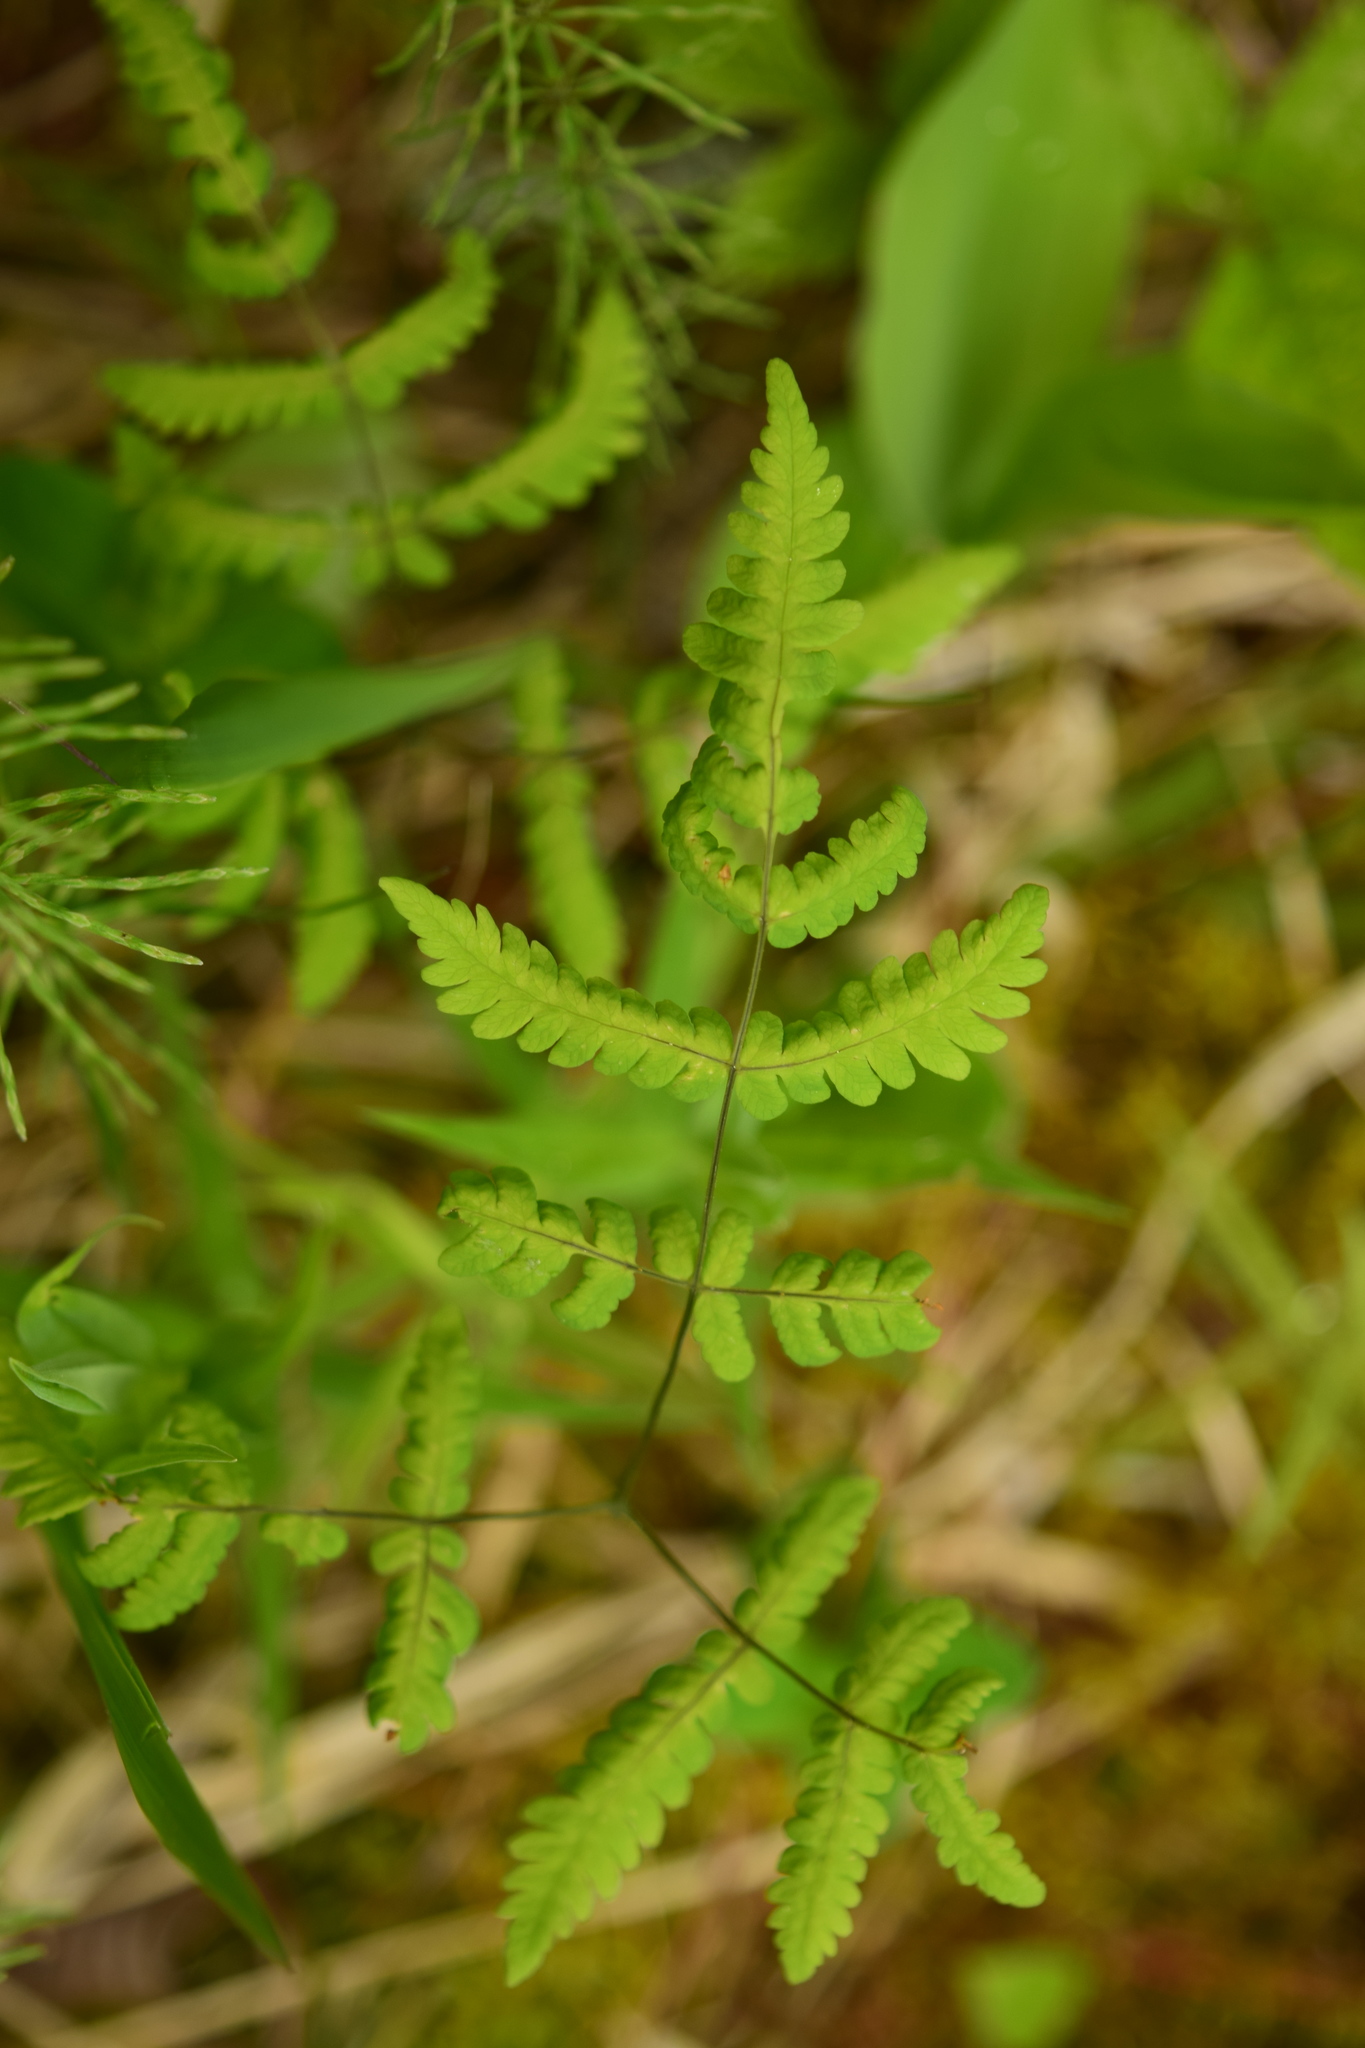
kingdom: Plantae
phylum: Tracheophyta
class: Polypodiopsida
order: Polypodiales
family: Cystopteridaceae
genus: Gymnocarpium
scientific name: Gymnocarpium dryopteris
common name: Oak fern
